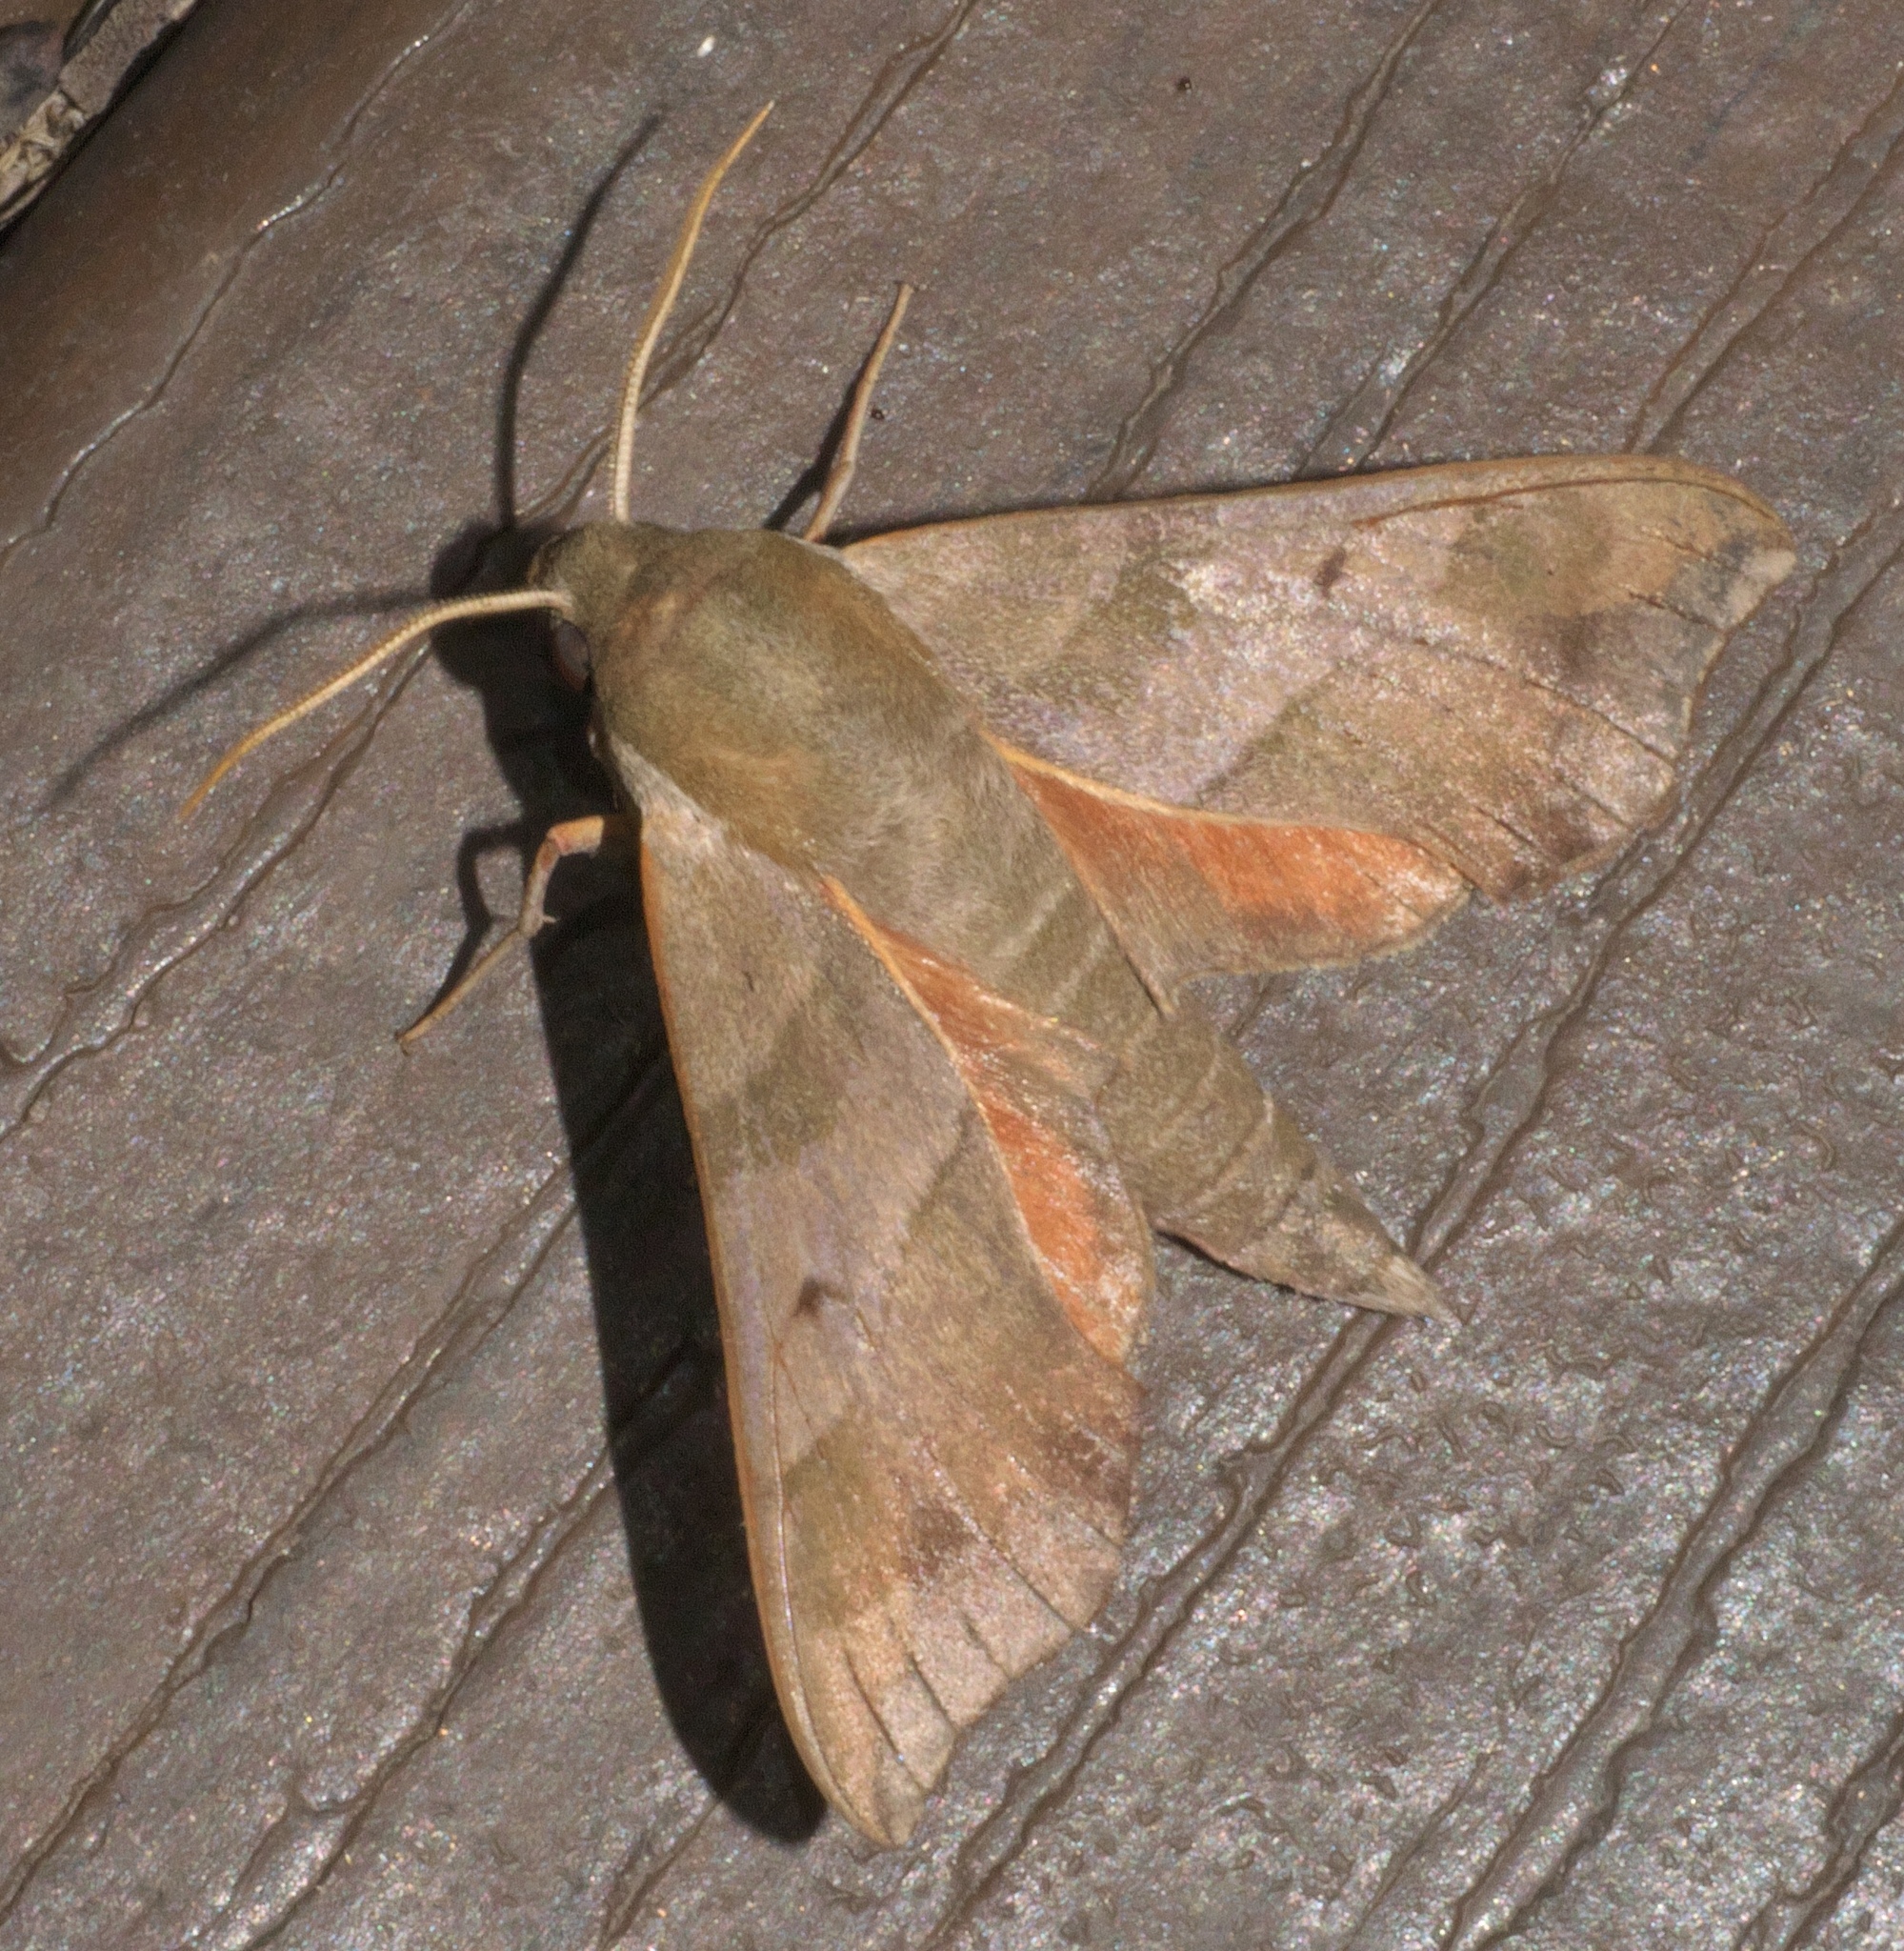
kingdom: Animalia
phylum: Arthropoda
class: Insecta
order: Lepidoptera
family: Sphingidae
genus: Darapsa
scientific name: Darapsa myron
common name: Hog sphinx
